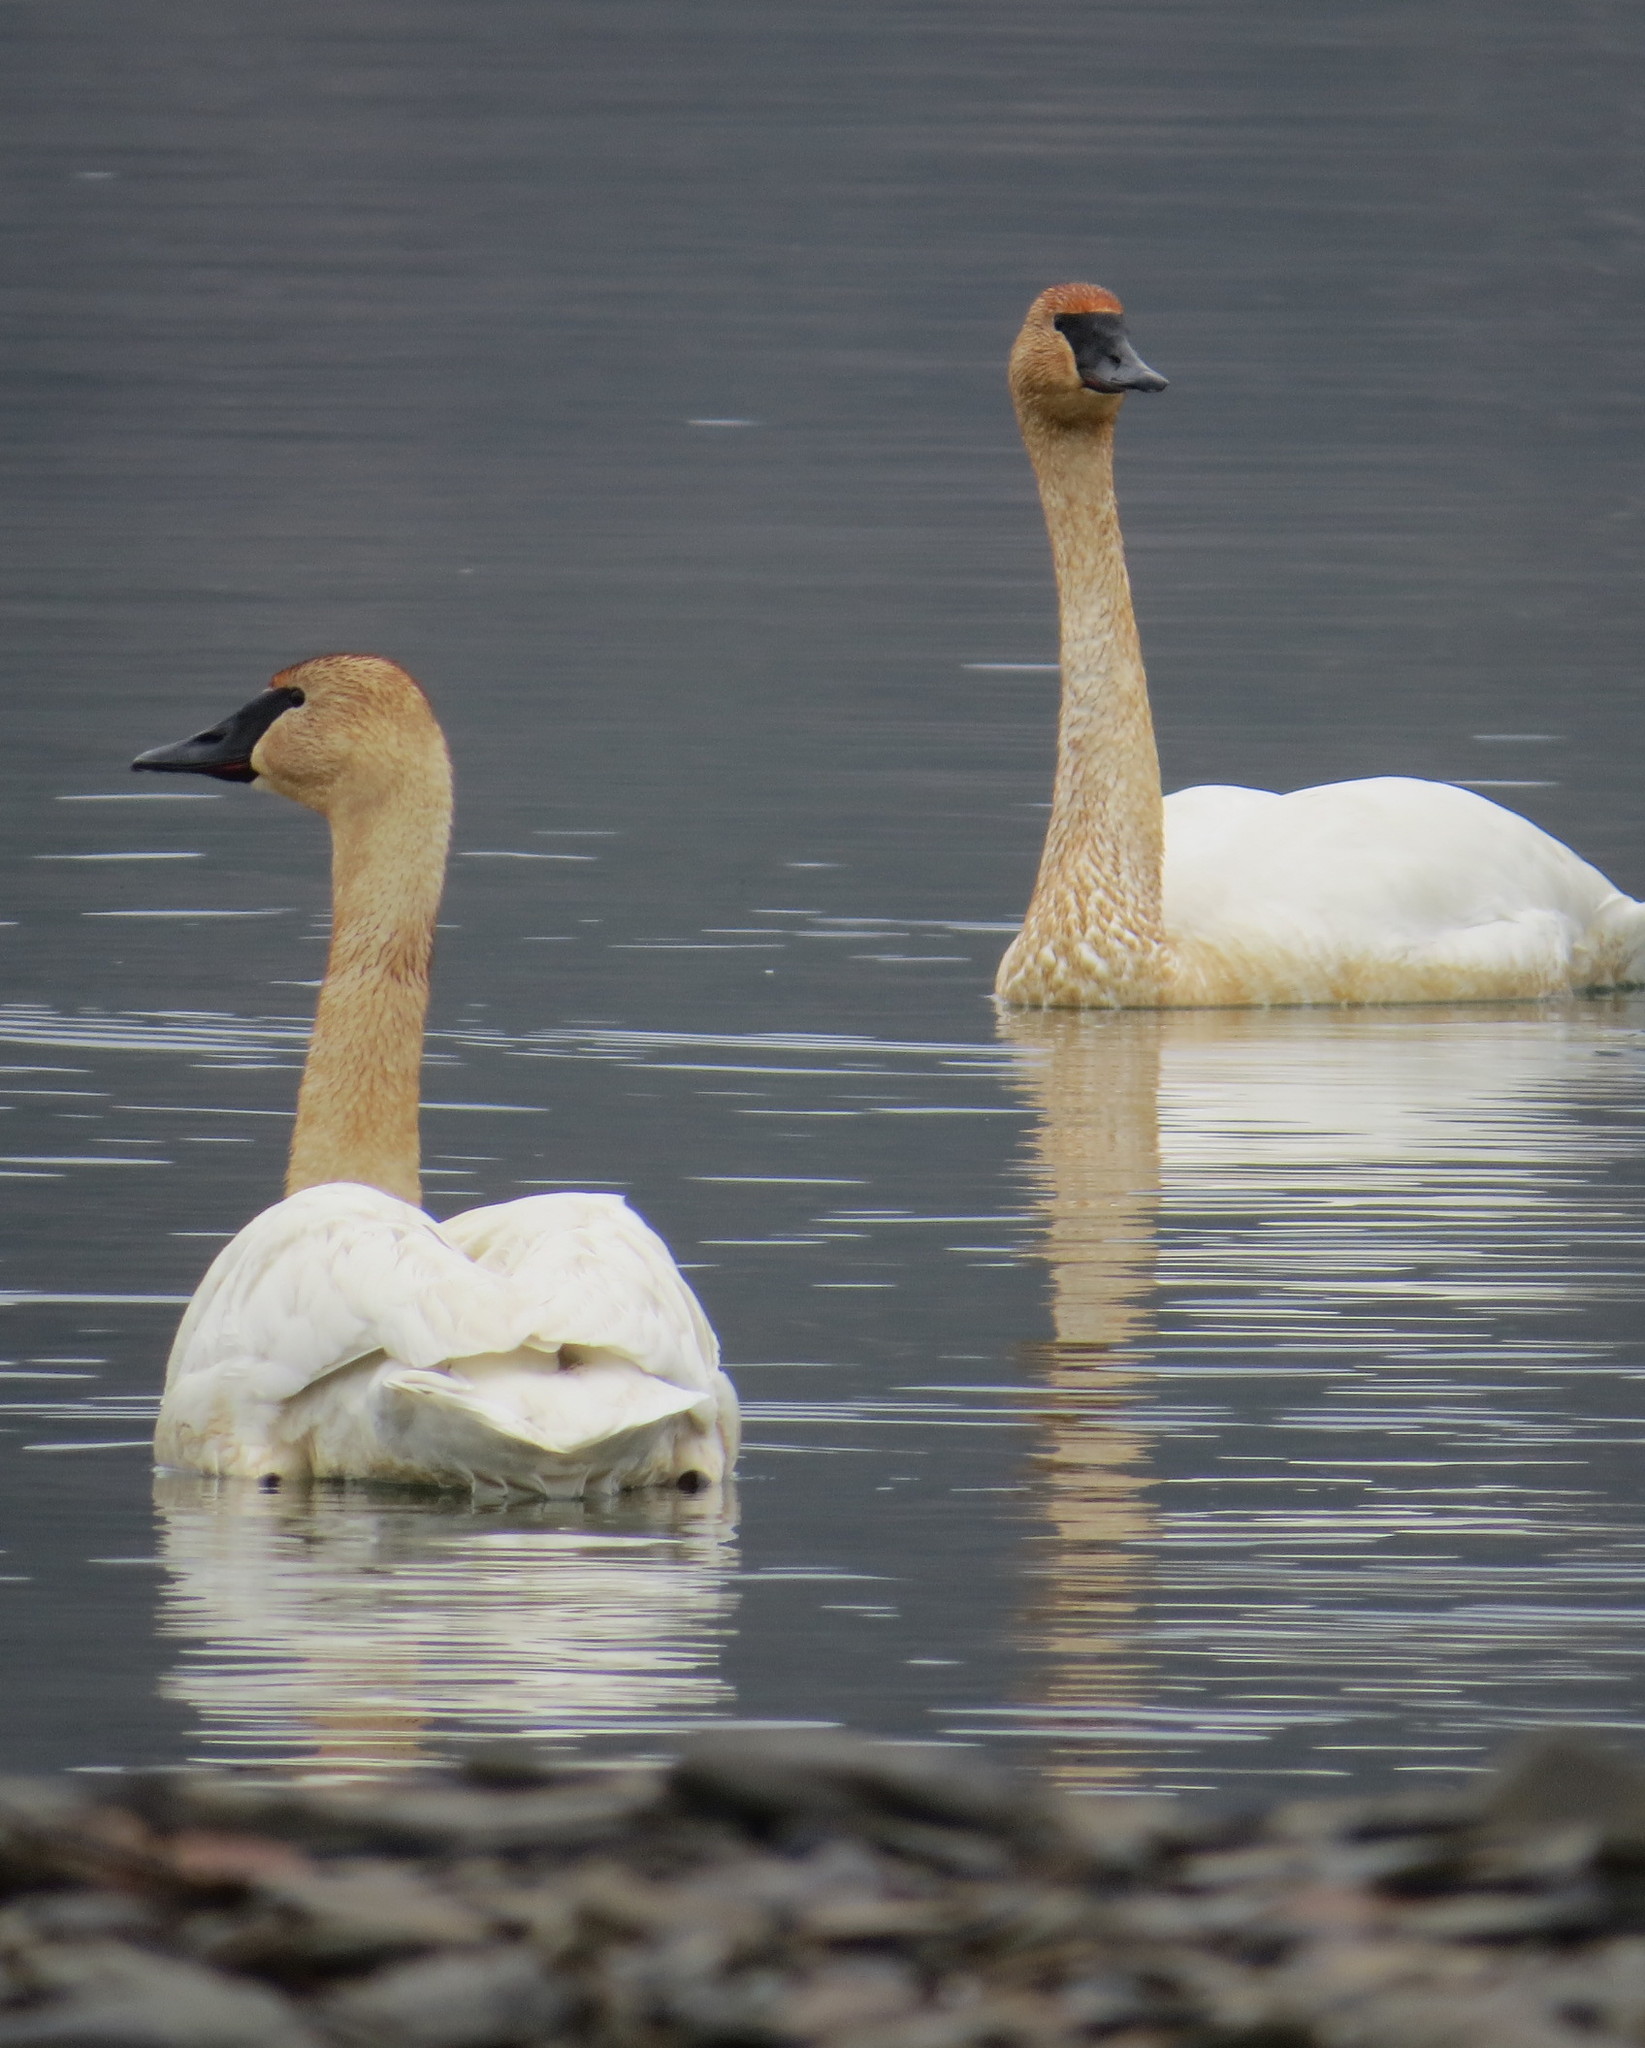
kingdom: Animalia
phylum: Chordata
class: Aves
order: Anseriformes
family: Anatidae
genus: Cygnus
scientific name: Cygnus buccinator
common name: Trumpeter swan
